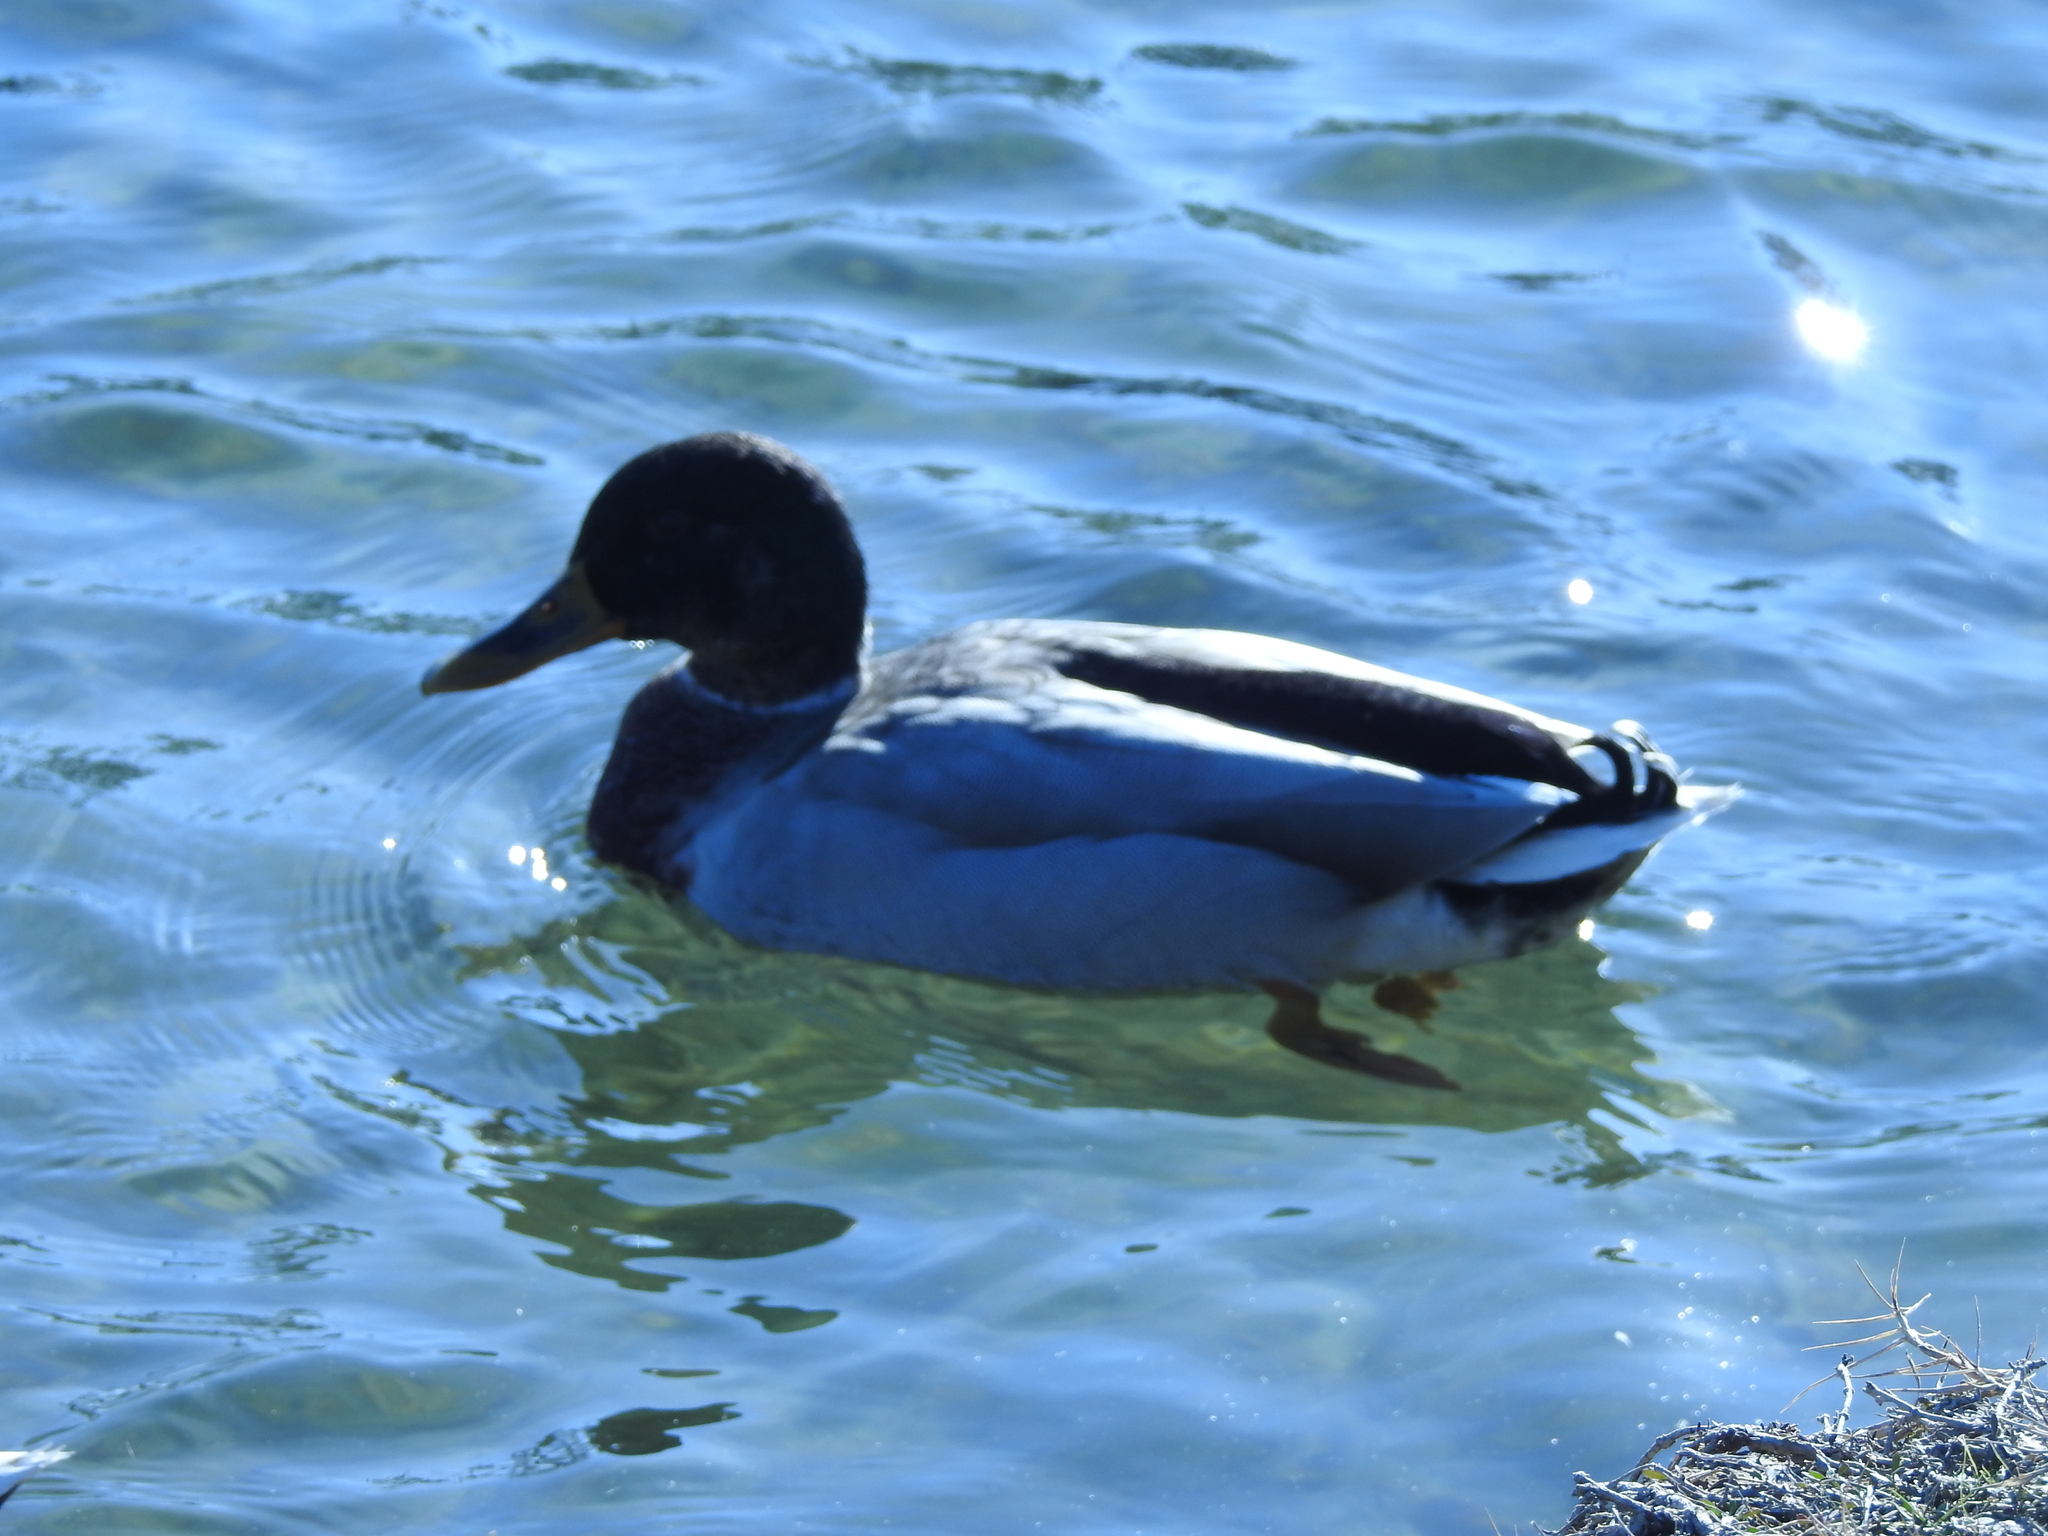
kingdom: Animalia
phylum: Chordata
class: Aves
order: Anseriformes
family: Anatidae
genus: Anas
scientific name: Anas platyrhynchos
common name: Mallard
